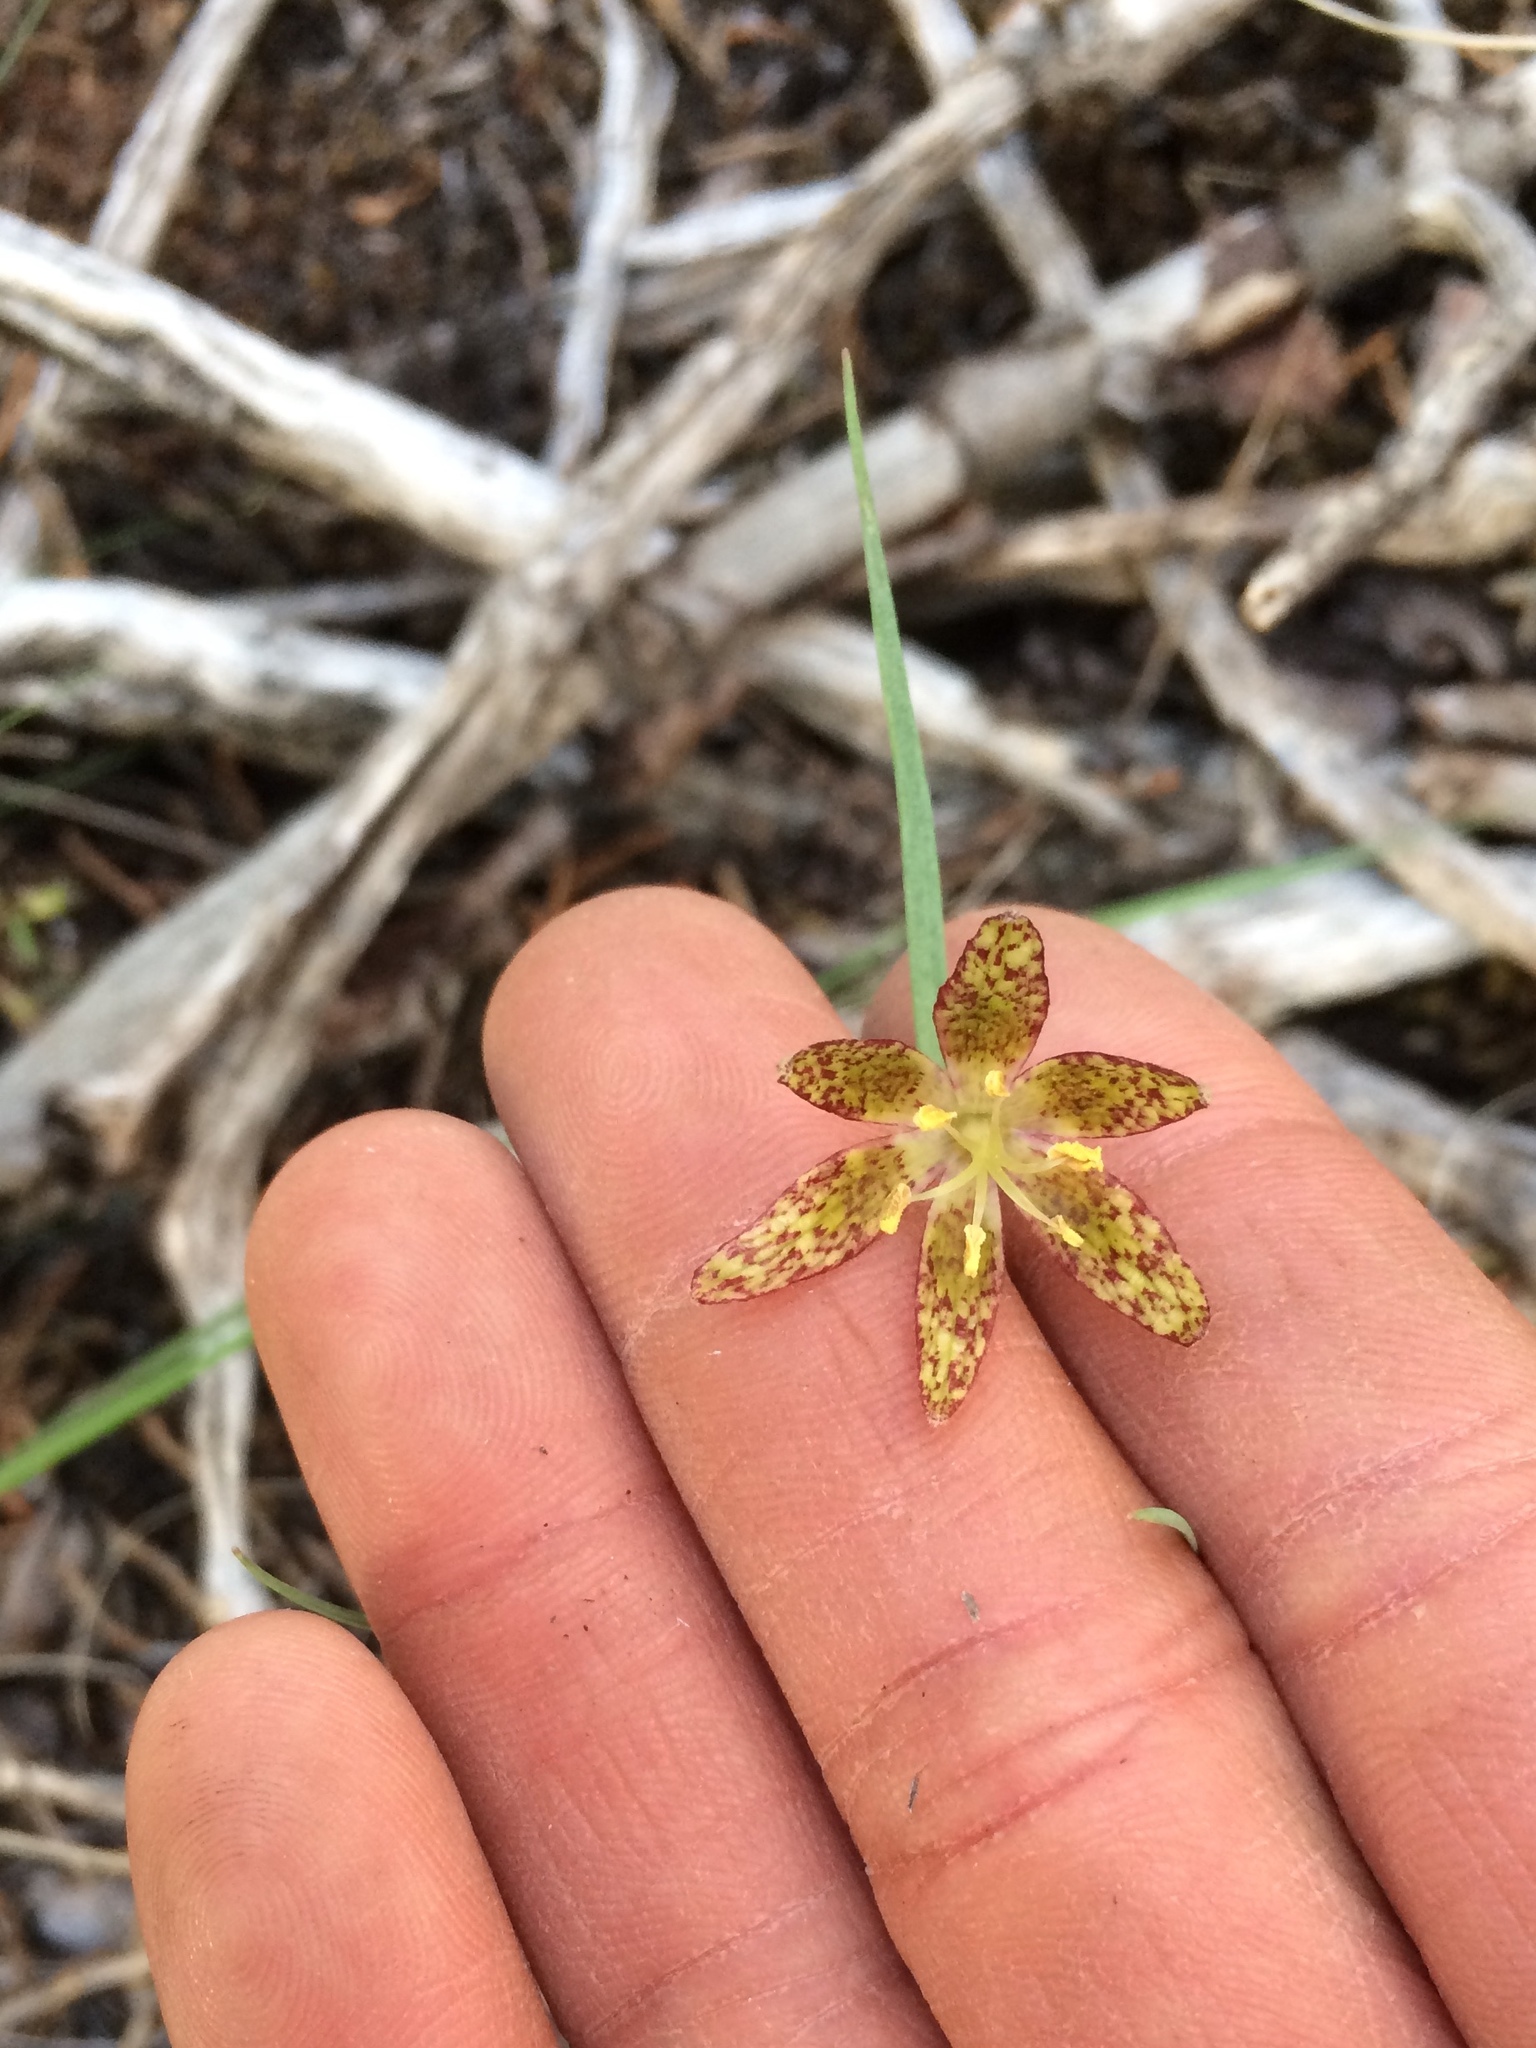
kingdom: Plantae
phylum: Tracheophyta
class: Liliopsida
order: Liliales
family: Liliaceae
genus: Fritillaria
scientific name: Fritillaria atropurpurea
